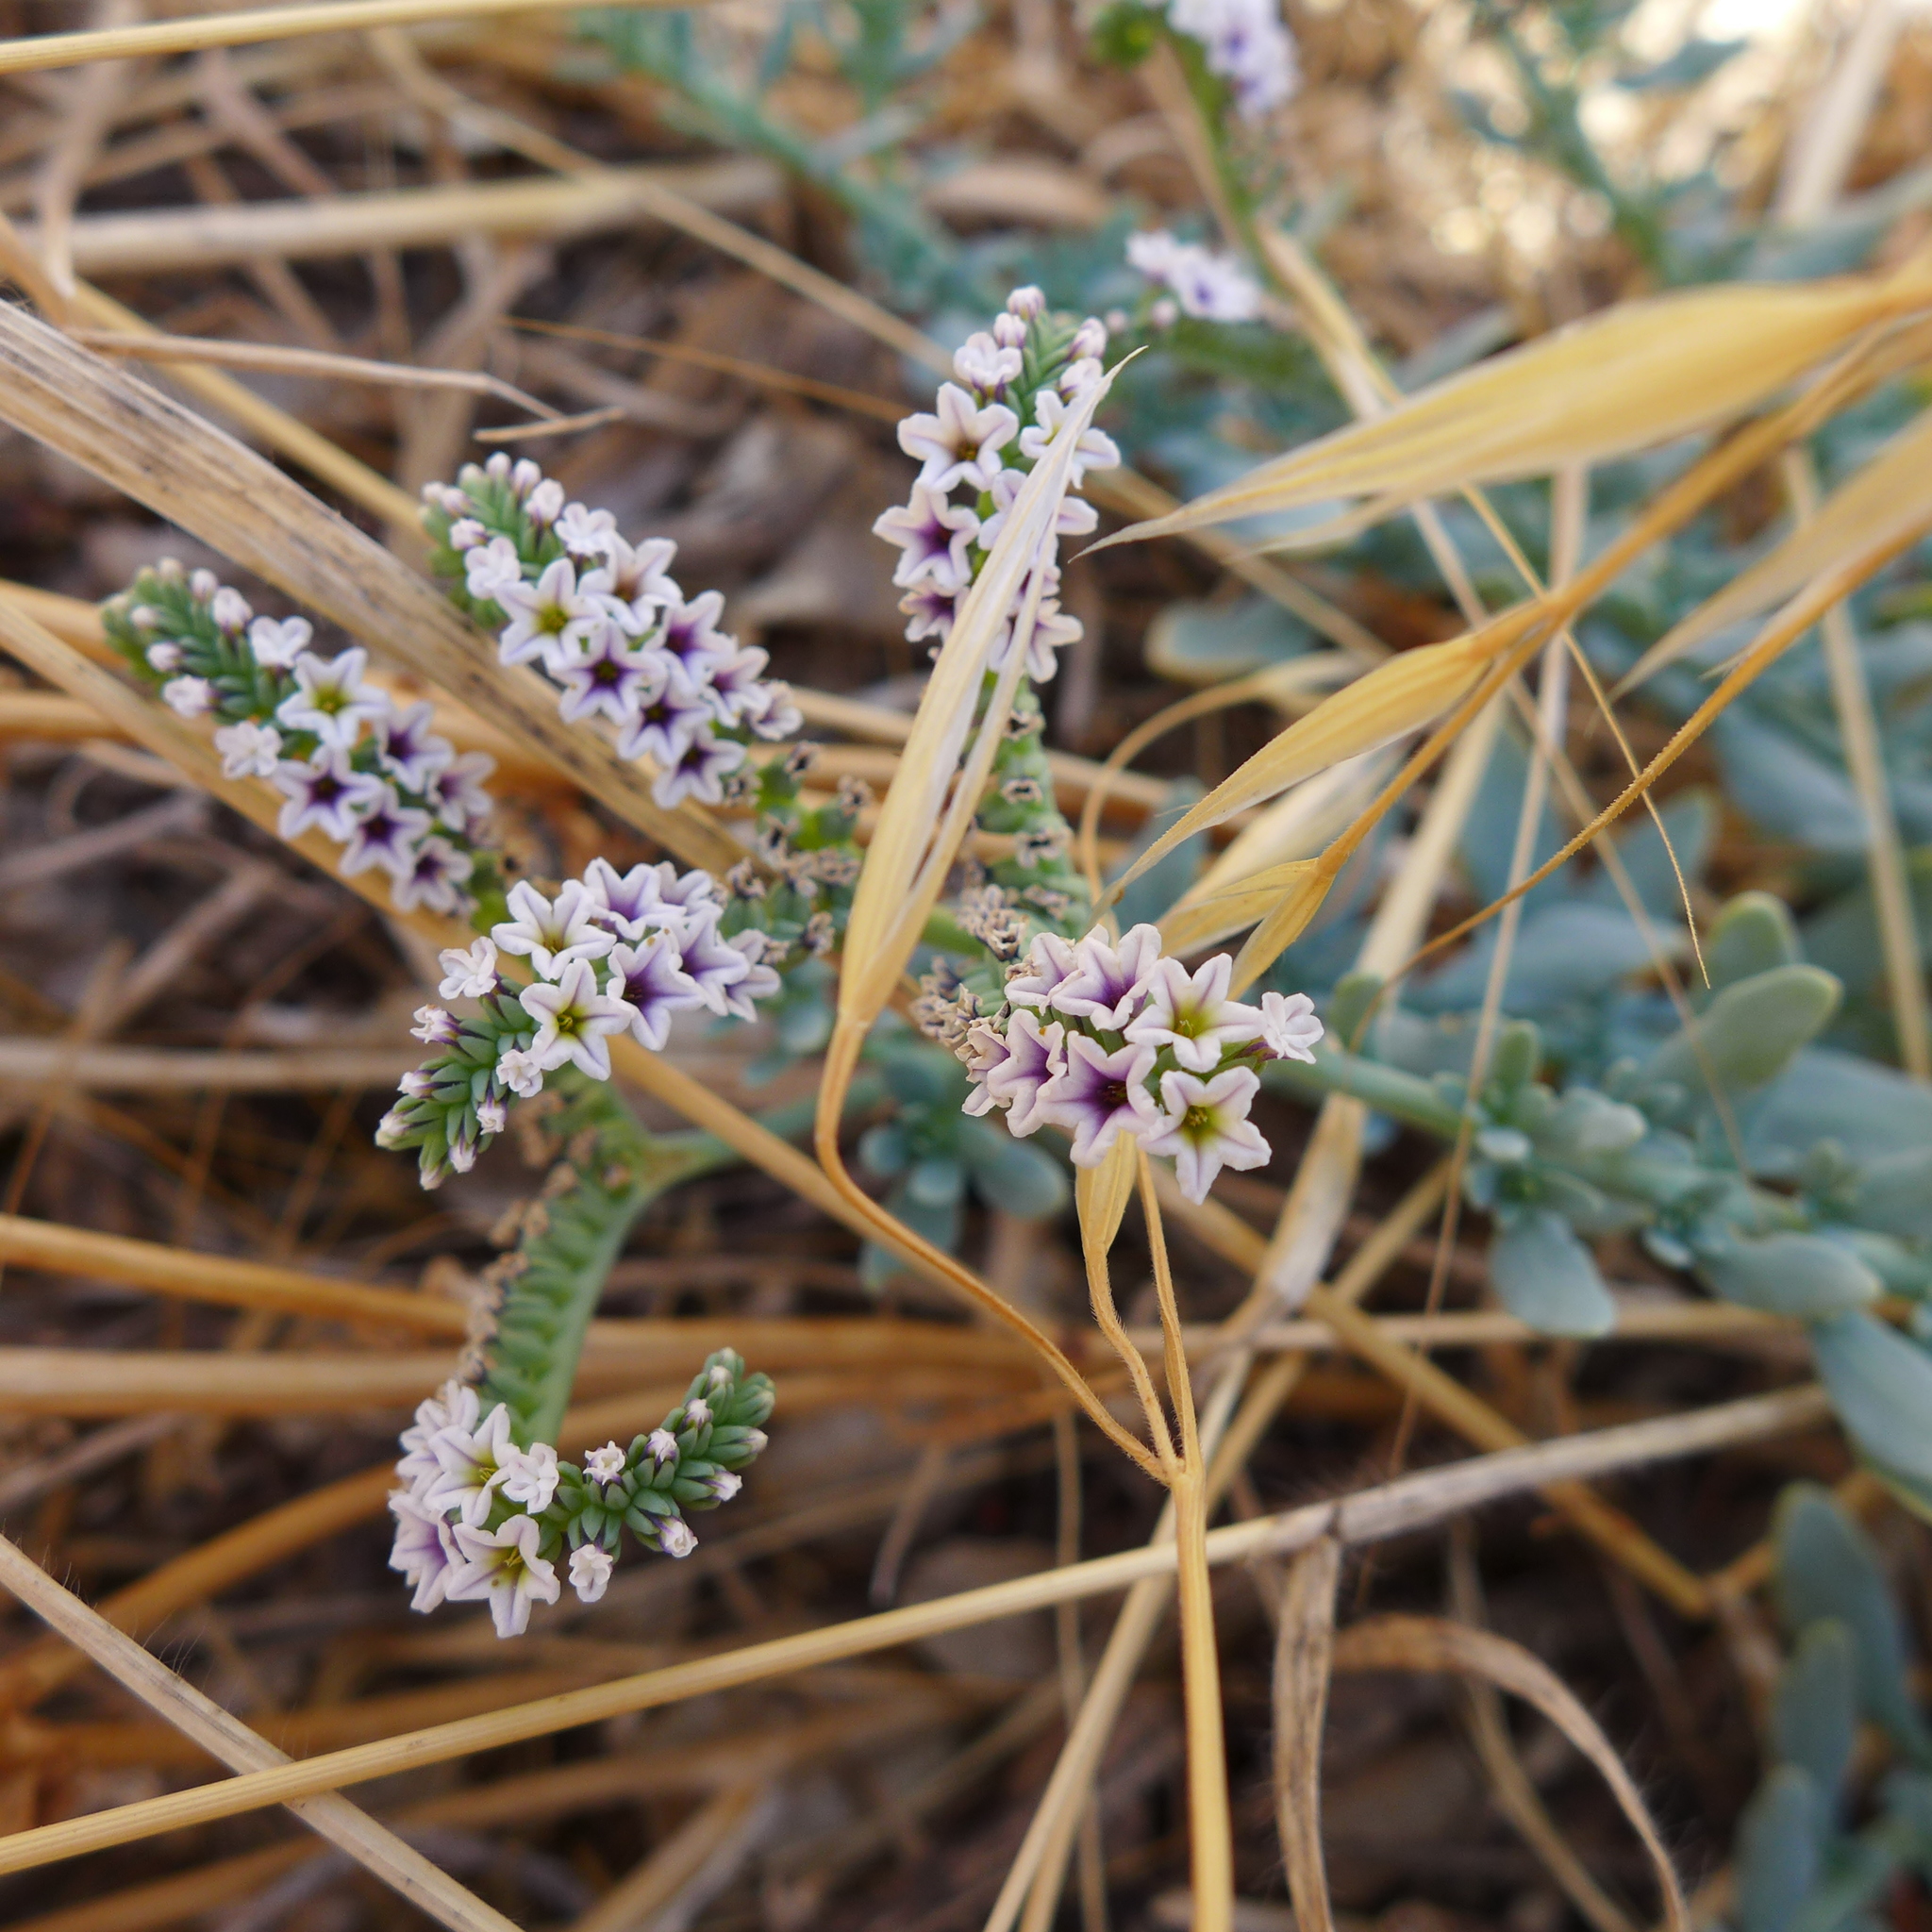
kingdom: Plantae
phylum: Tracheophyta
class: Magnoliopsida
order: Boraginales
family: Heliotropiaceae
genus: Heliotropium
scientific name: Heliotropium curassavicum
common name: Seaside heliotrope
